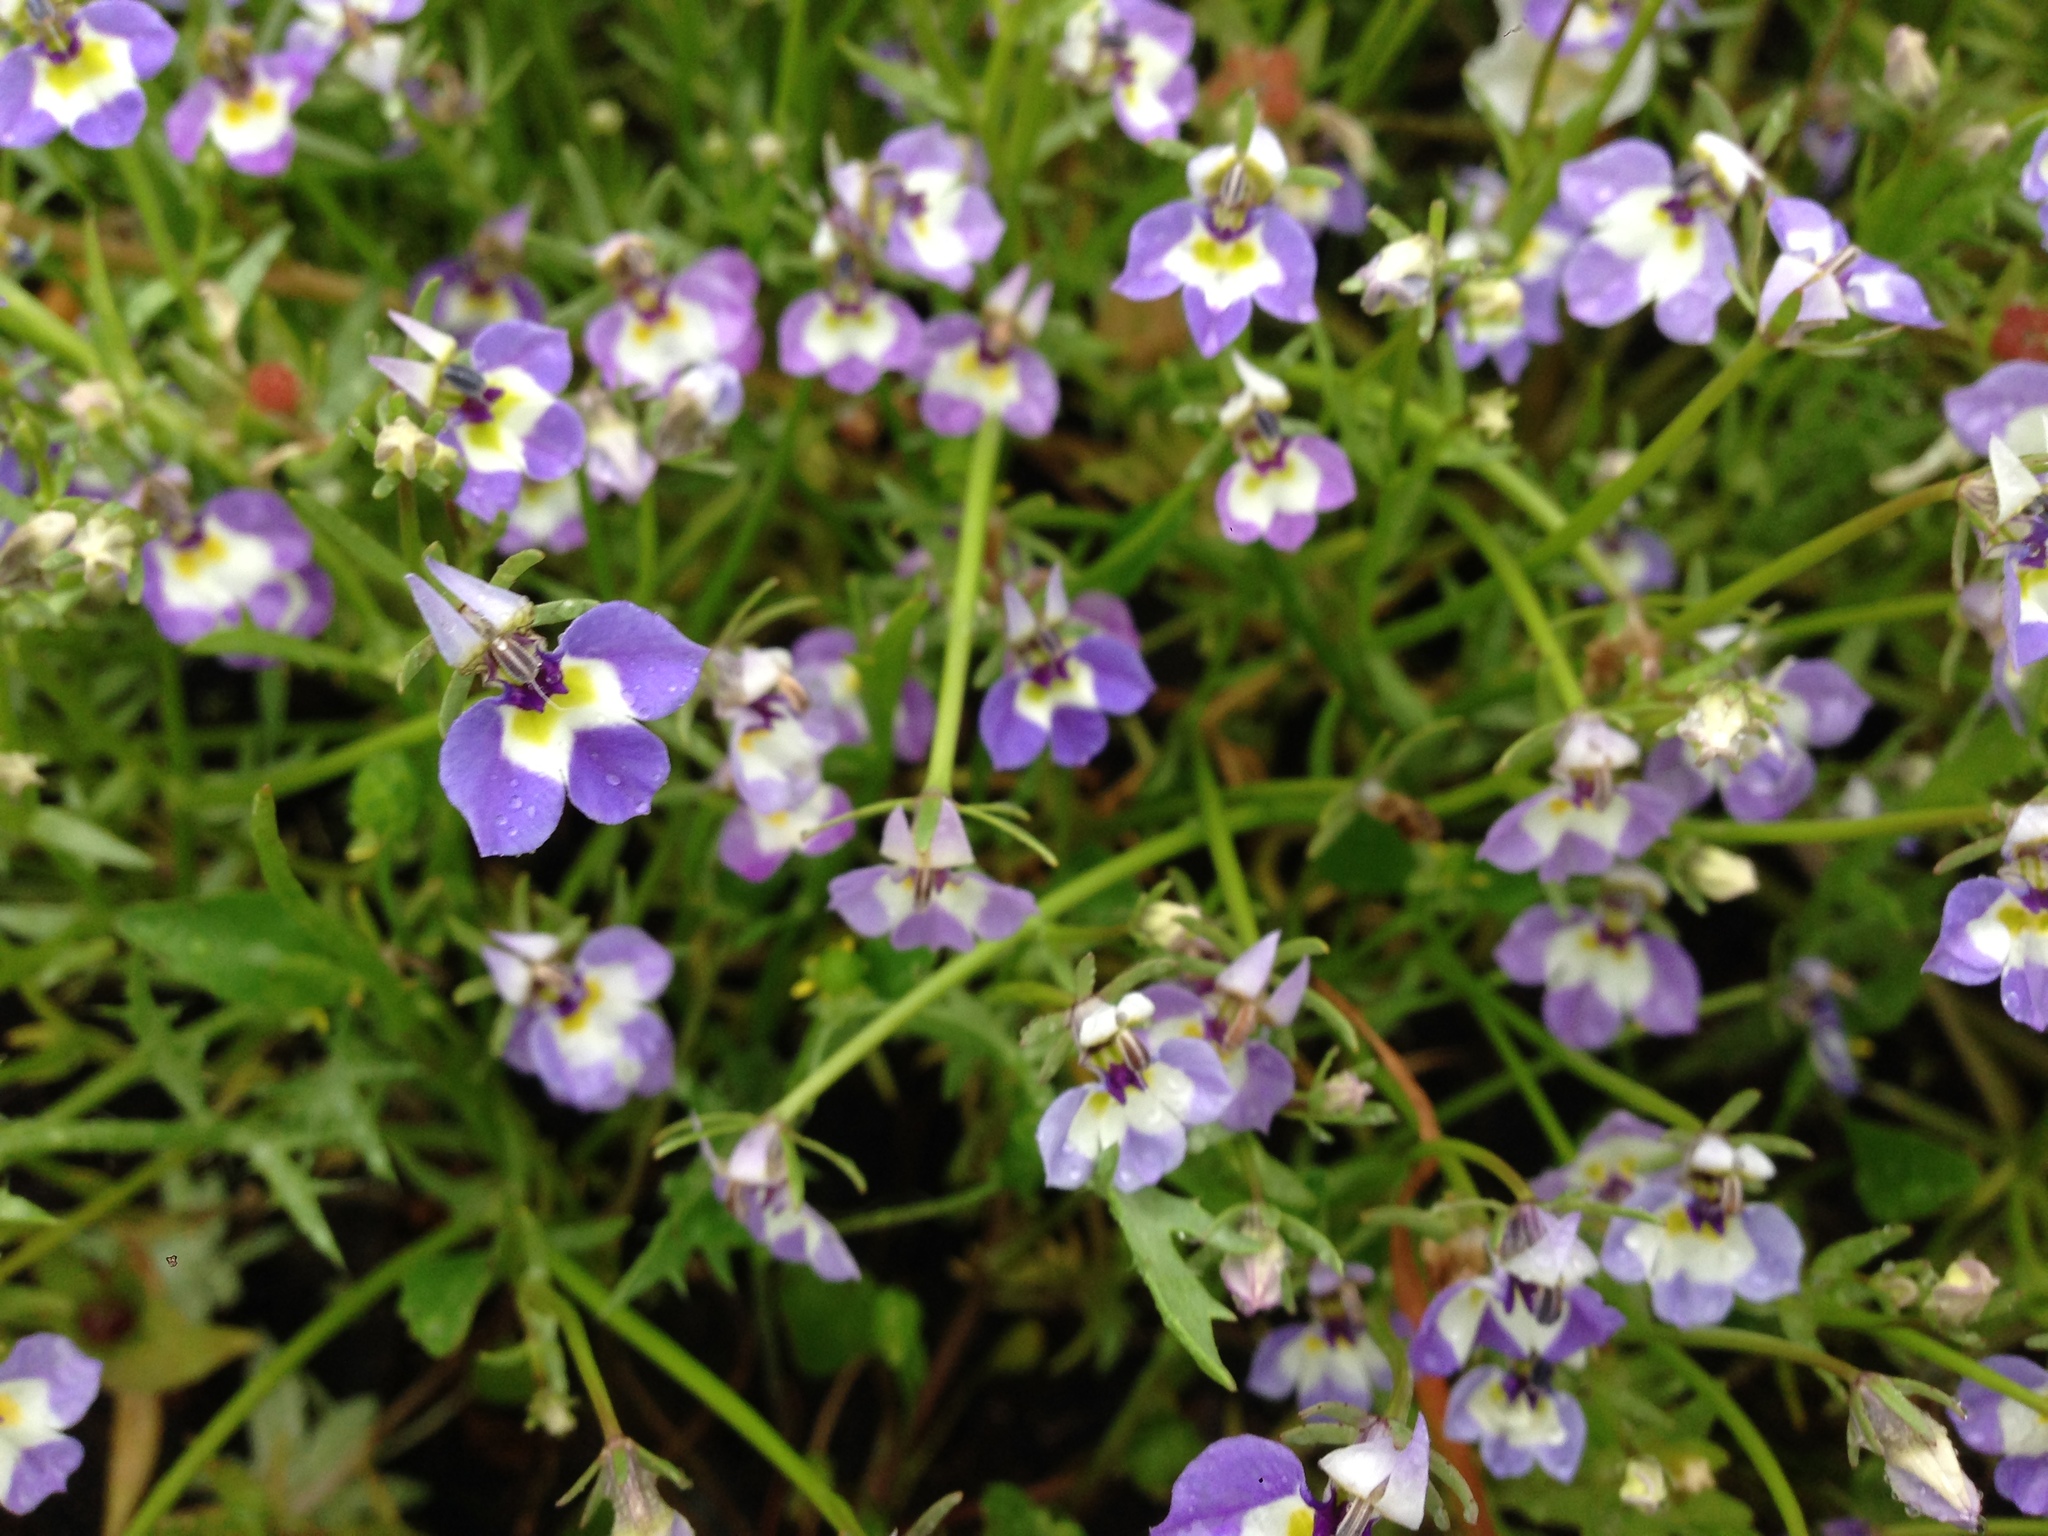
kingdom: Plantae
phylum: Tracheophyta
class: Magnoliopsida
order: Asterales
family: Campanulaceae
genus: Downingia
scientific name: Downingia bicornuta
